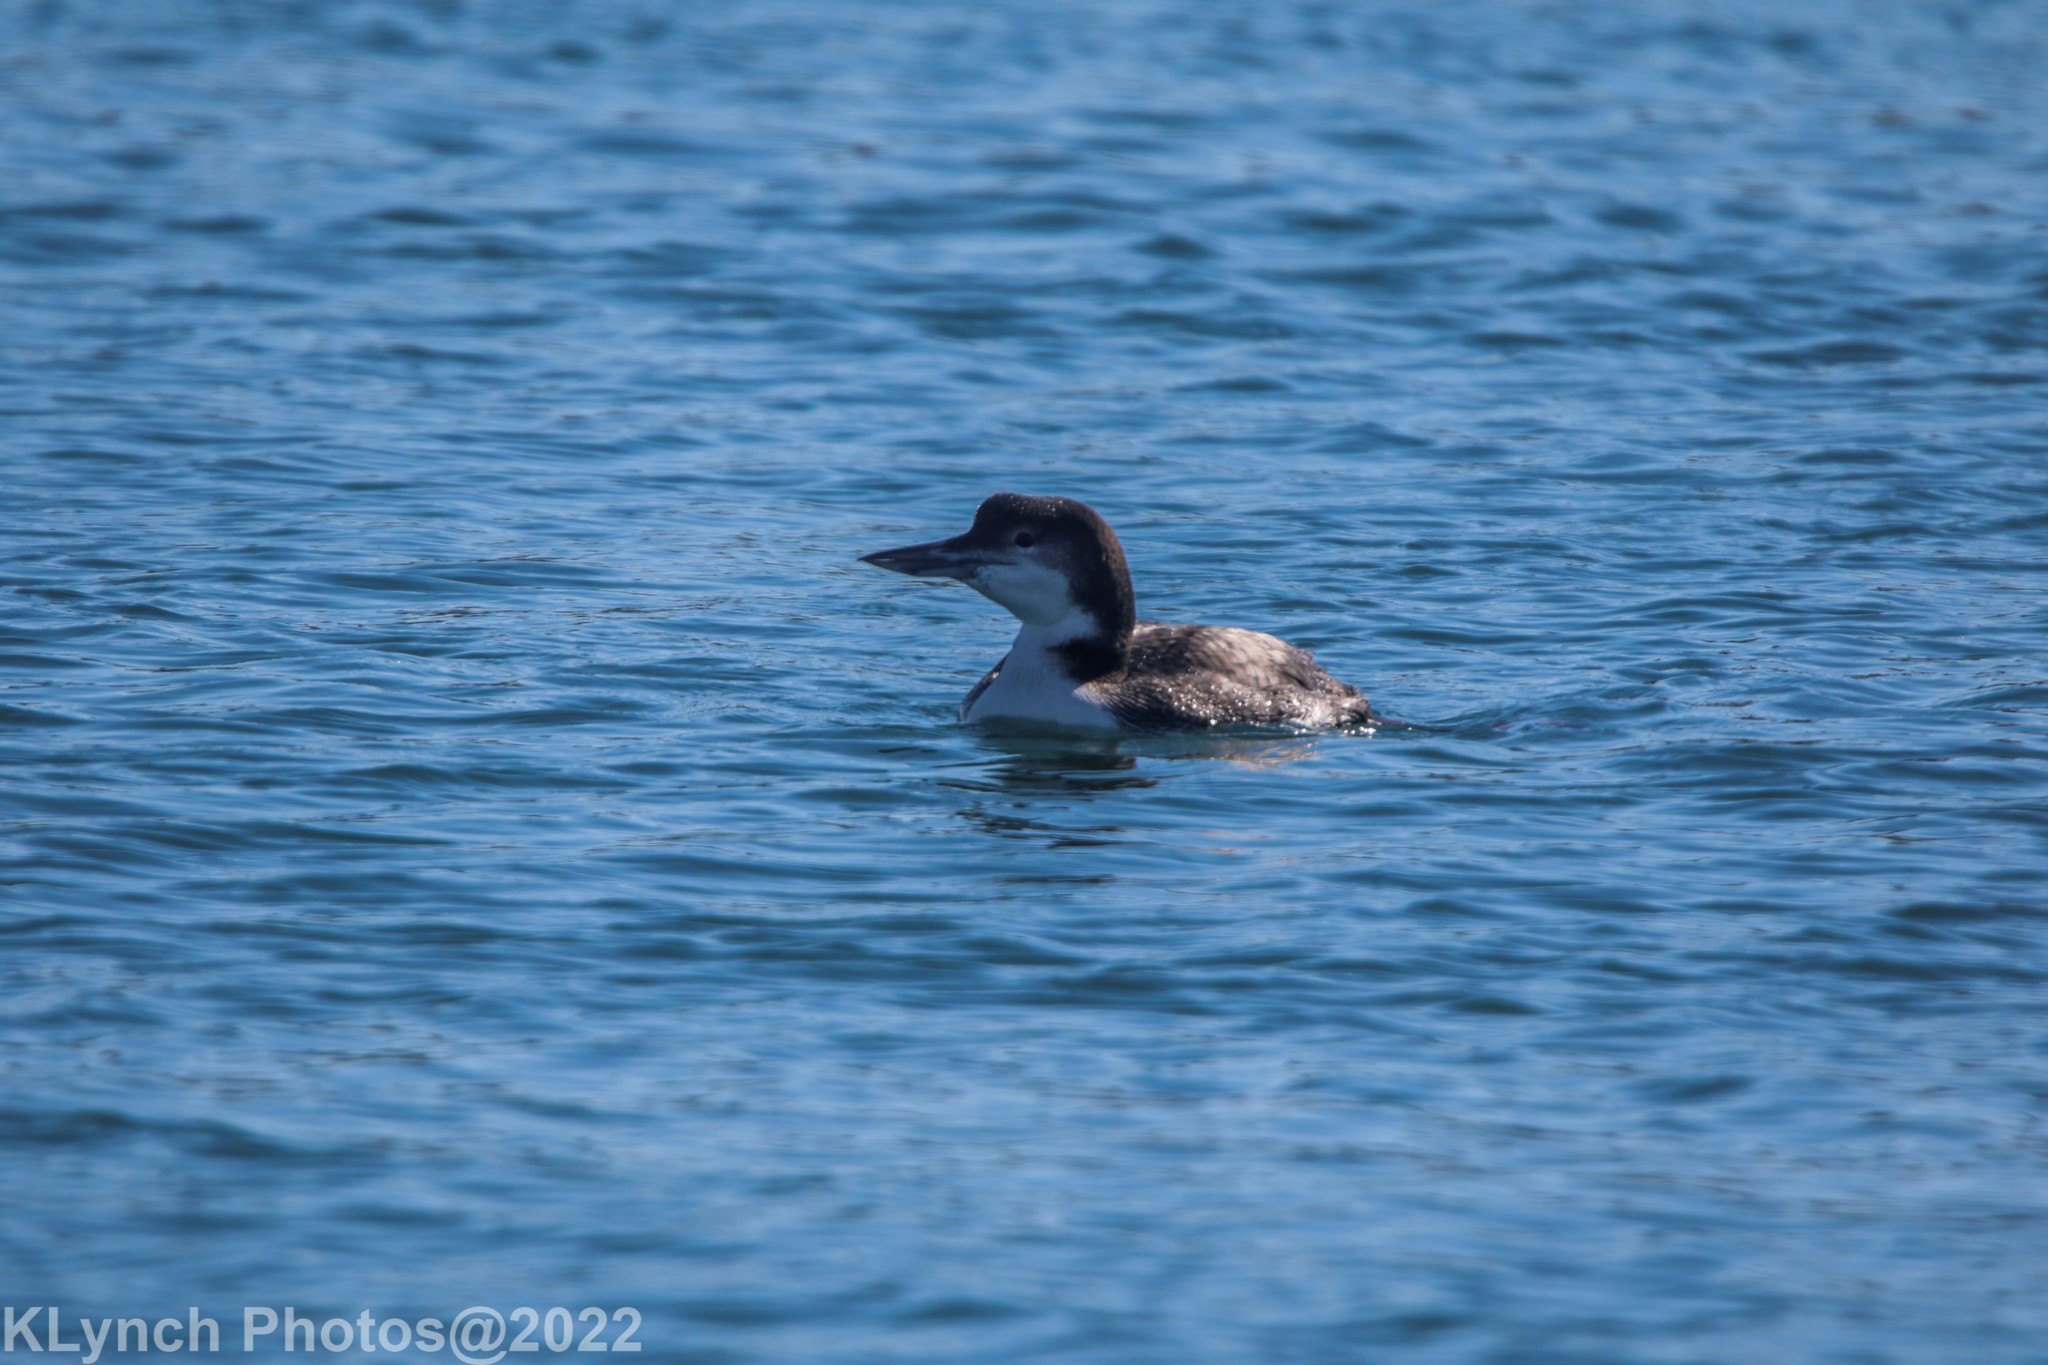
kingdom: Animalia
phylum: Chordata
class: Aves
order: Gaviiformes
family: Gaviidae
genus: Gavia
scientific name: Gavia immer
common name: Common loon
